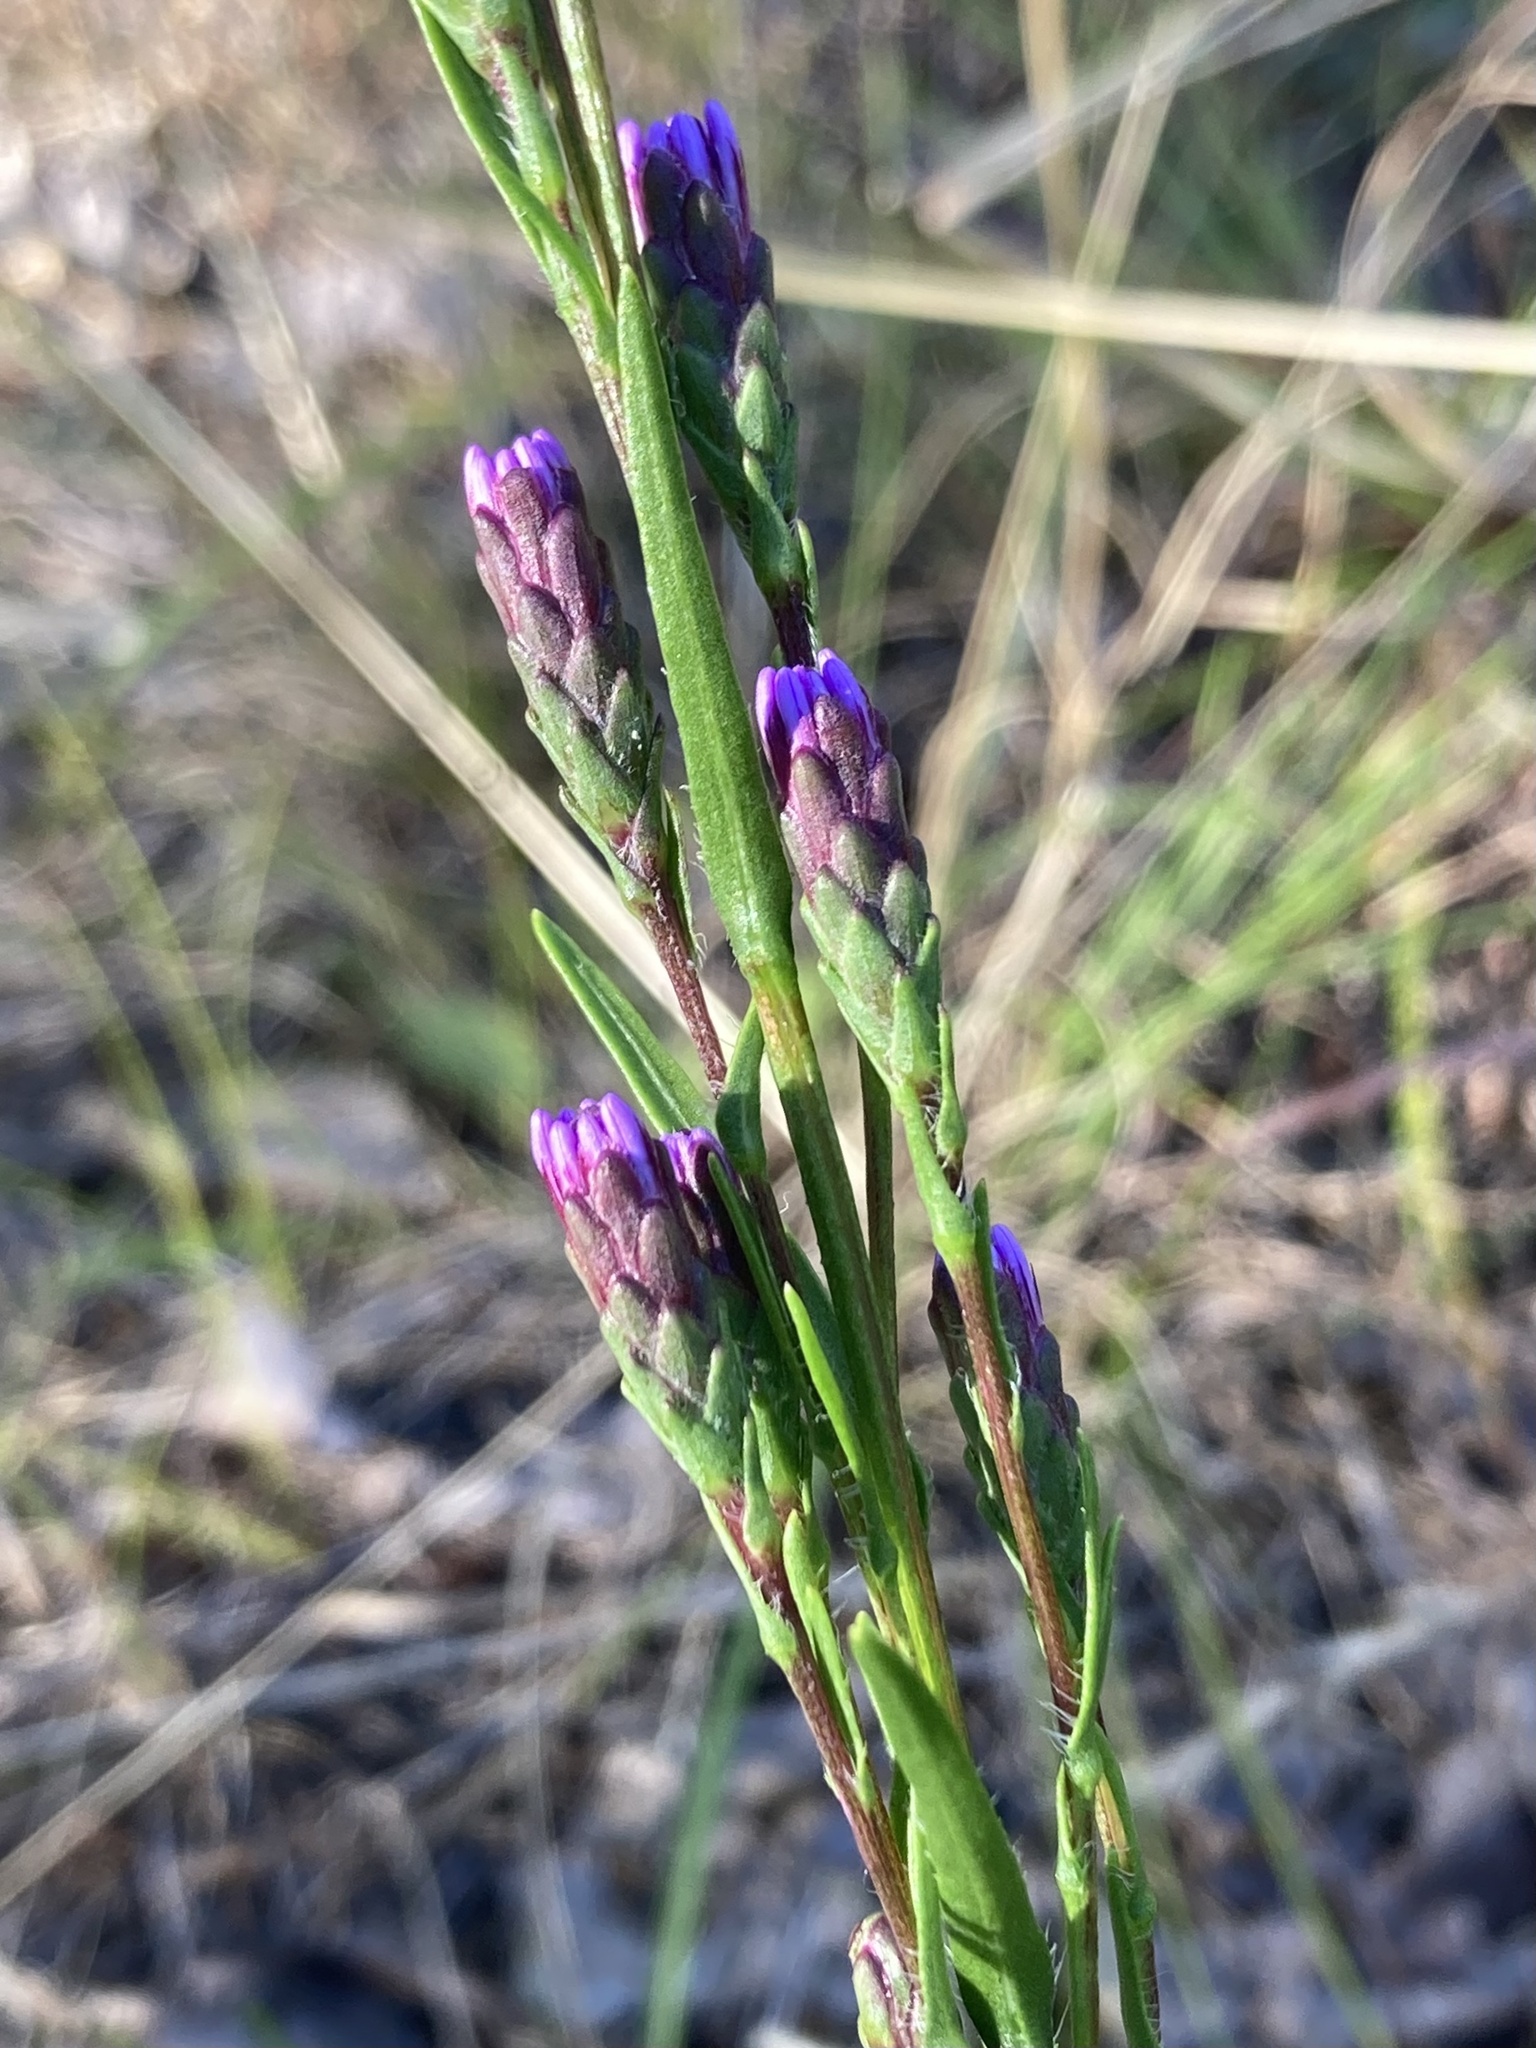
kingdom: Plantae
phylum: Tracheophyta
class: Magnoliopsida
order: Asterales
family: Asteraceae
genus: Liatris
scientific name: Liatris pilosa
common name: Grass-leaf gayfeather
